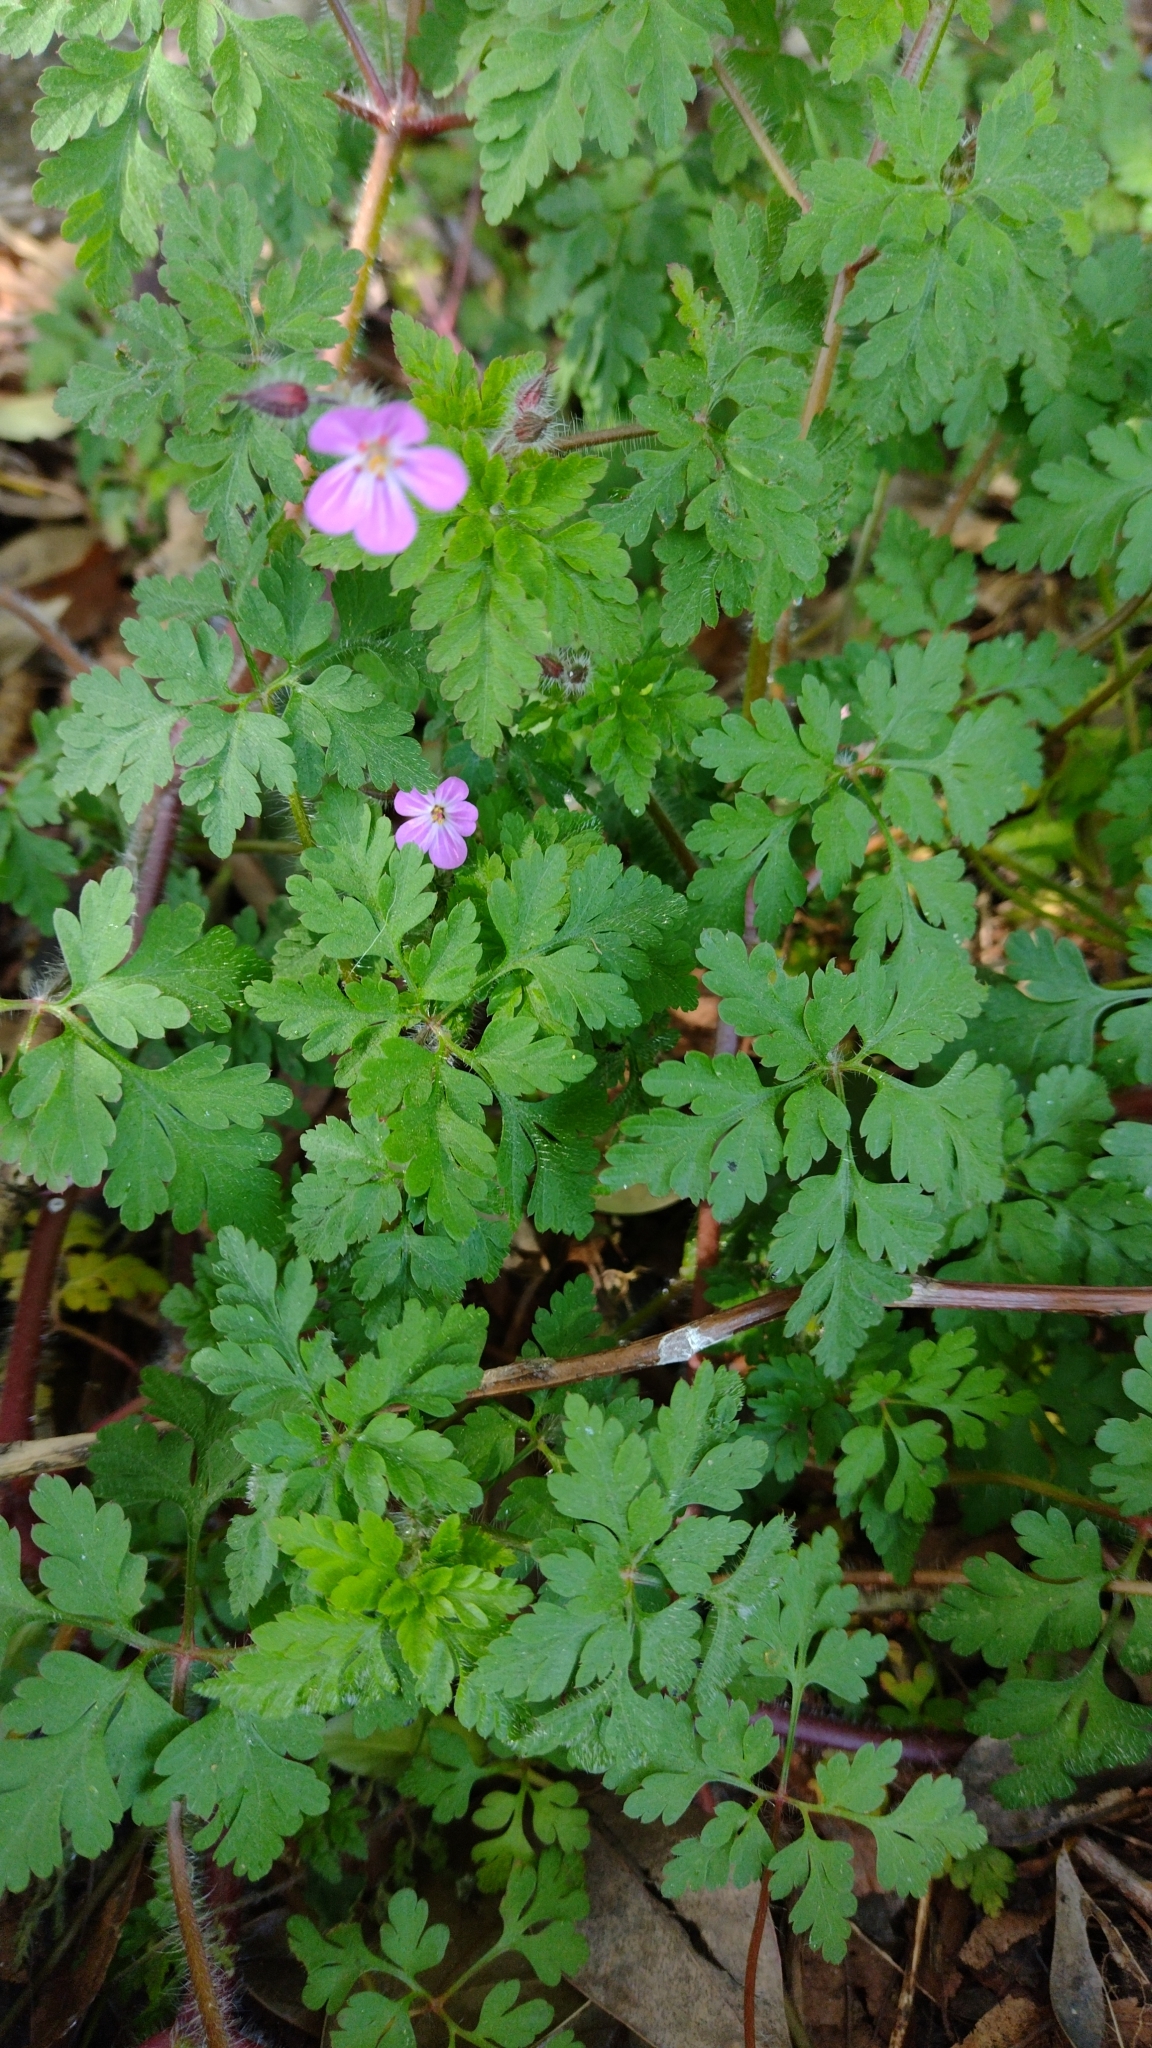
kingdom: Plantae
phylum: Tracheophyta
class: Magnoliopsida
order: Geraniales
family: Geraniaceae
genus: Geranium
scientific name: Geranium robertianum
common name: Herb-robert
